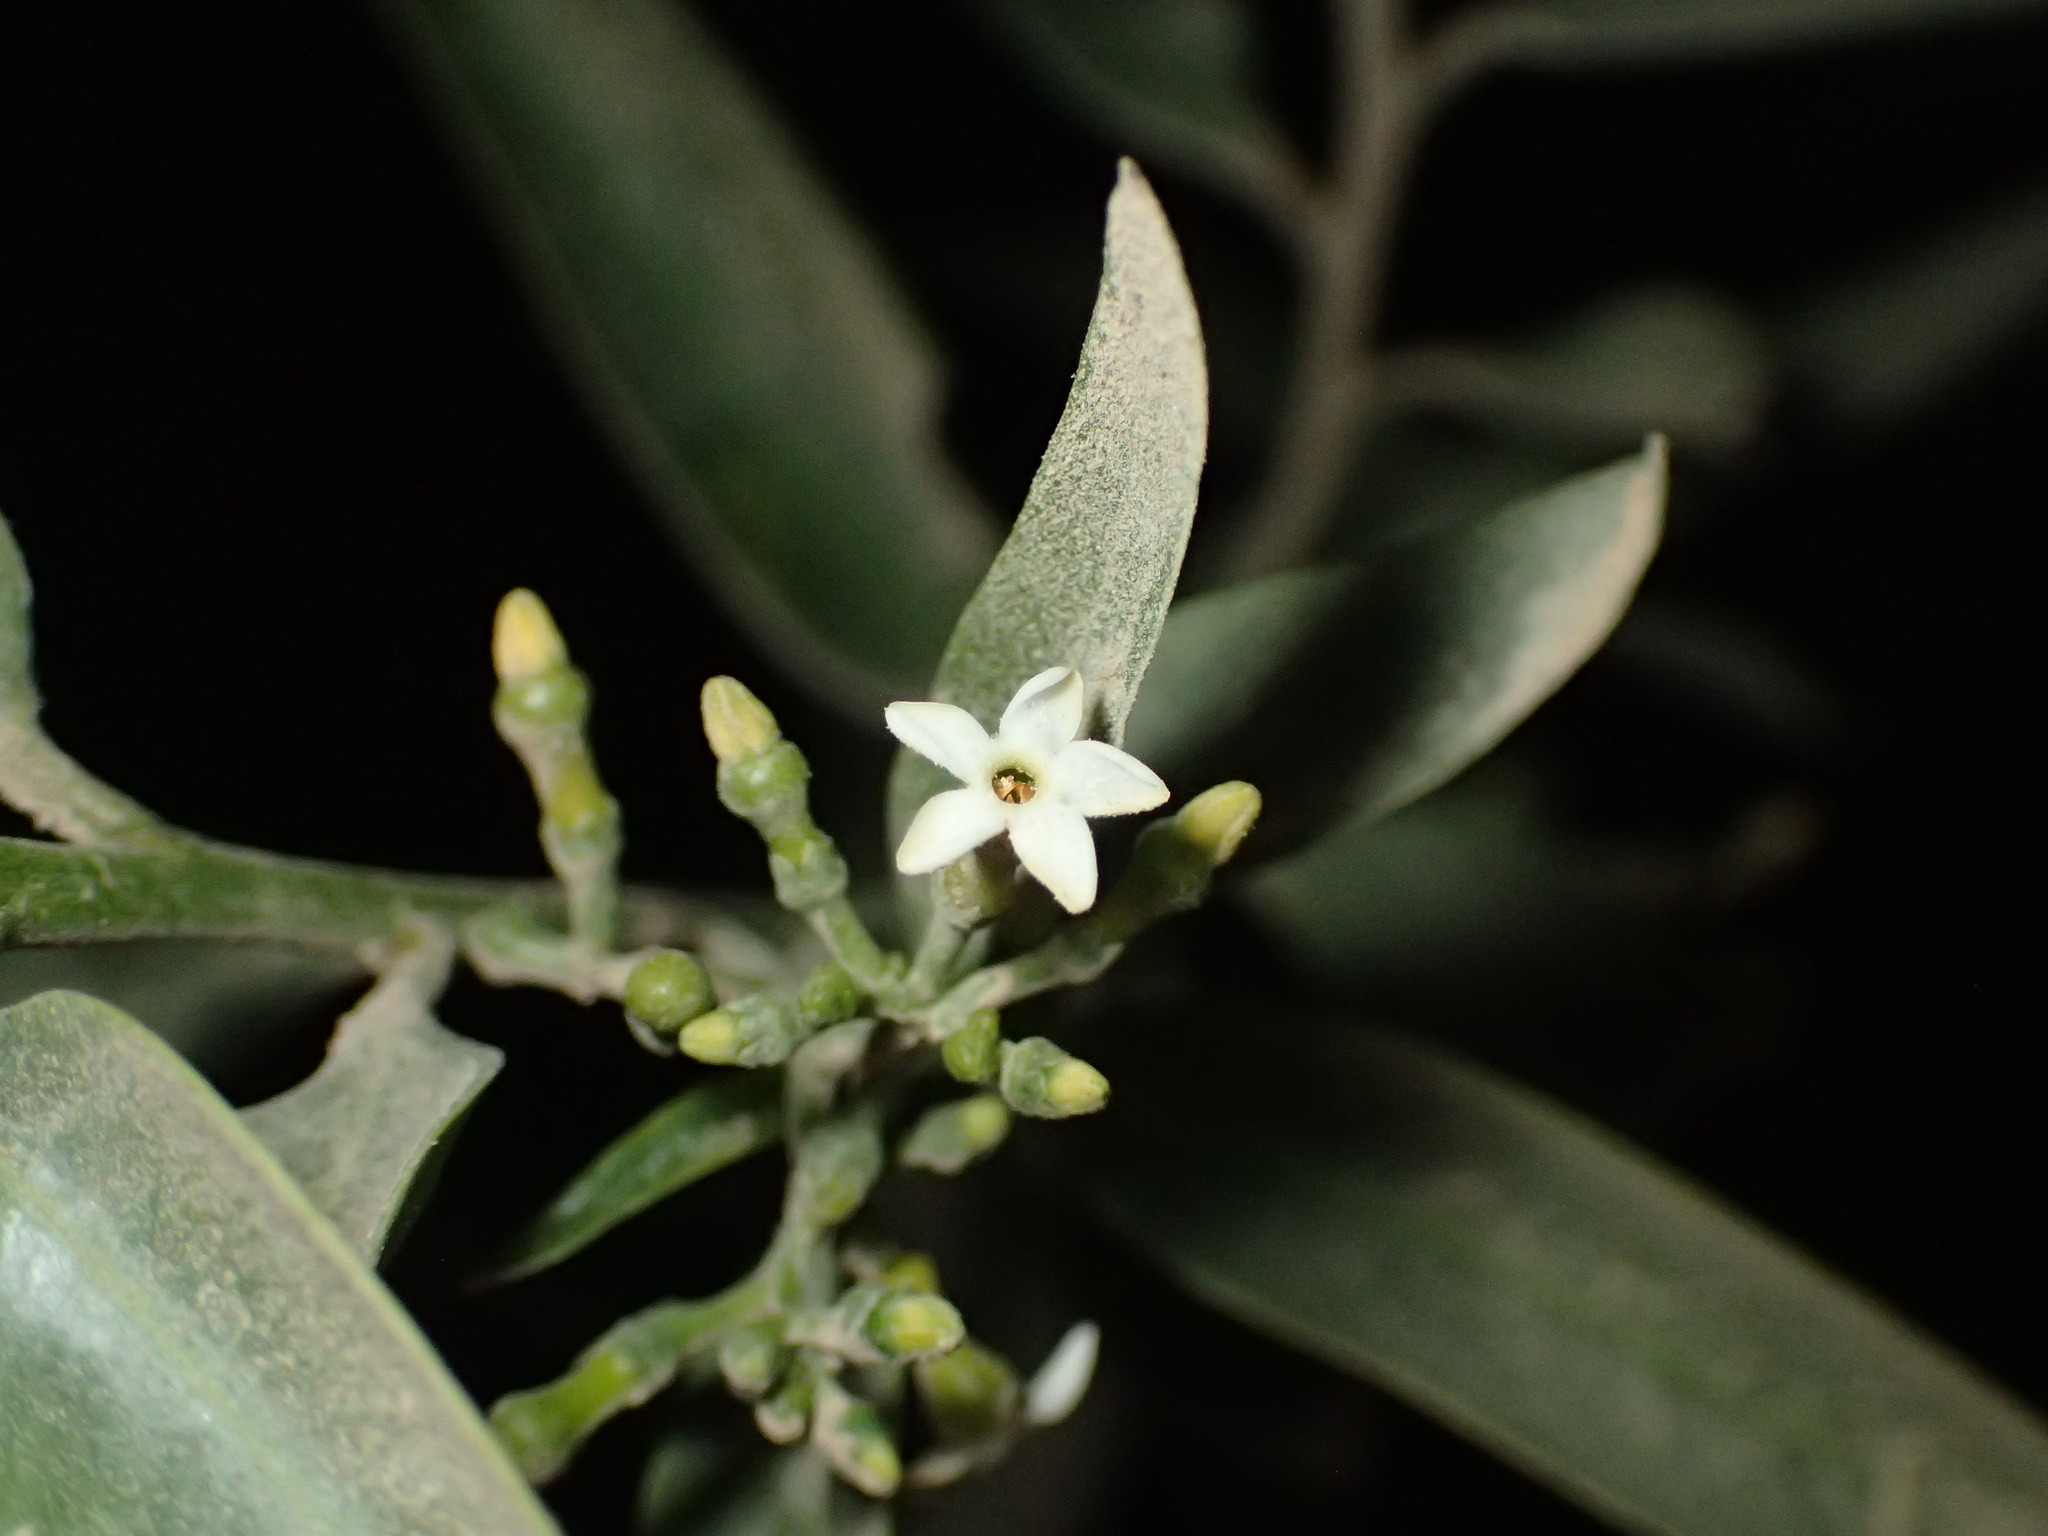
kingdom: Plantae
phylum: Tracheophyta
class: Magnoliopsida
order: Gentianales
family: Apocynaceae
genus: Vallesia
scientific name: Vallesia glabra
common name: Pearlberry
